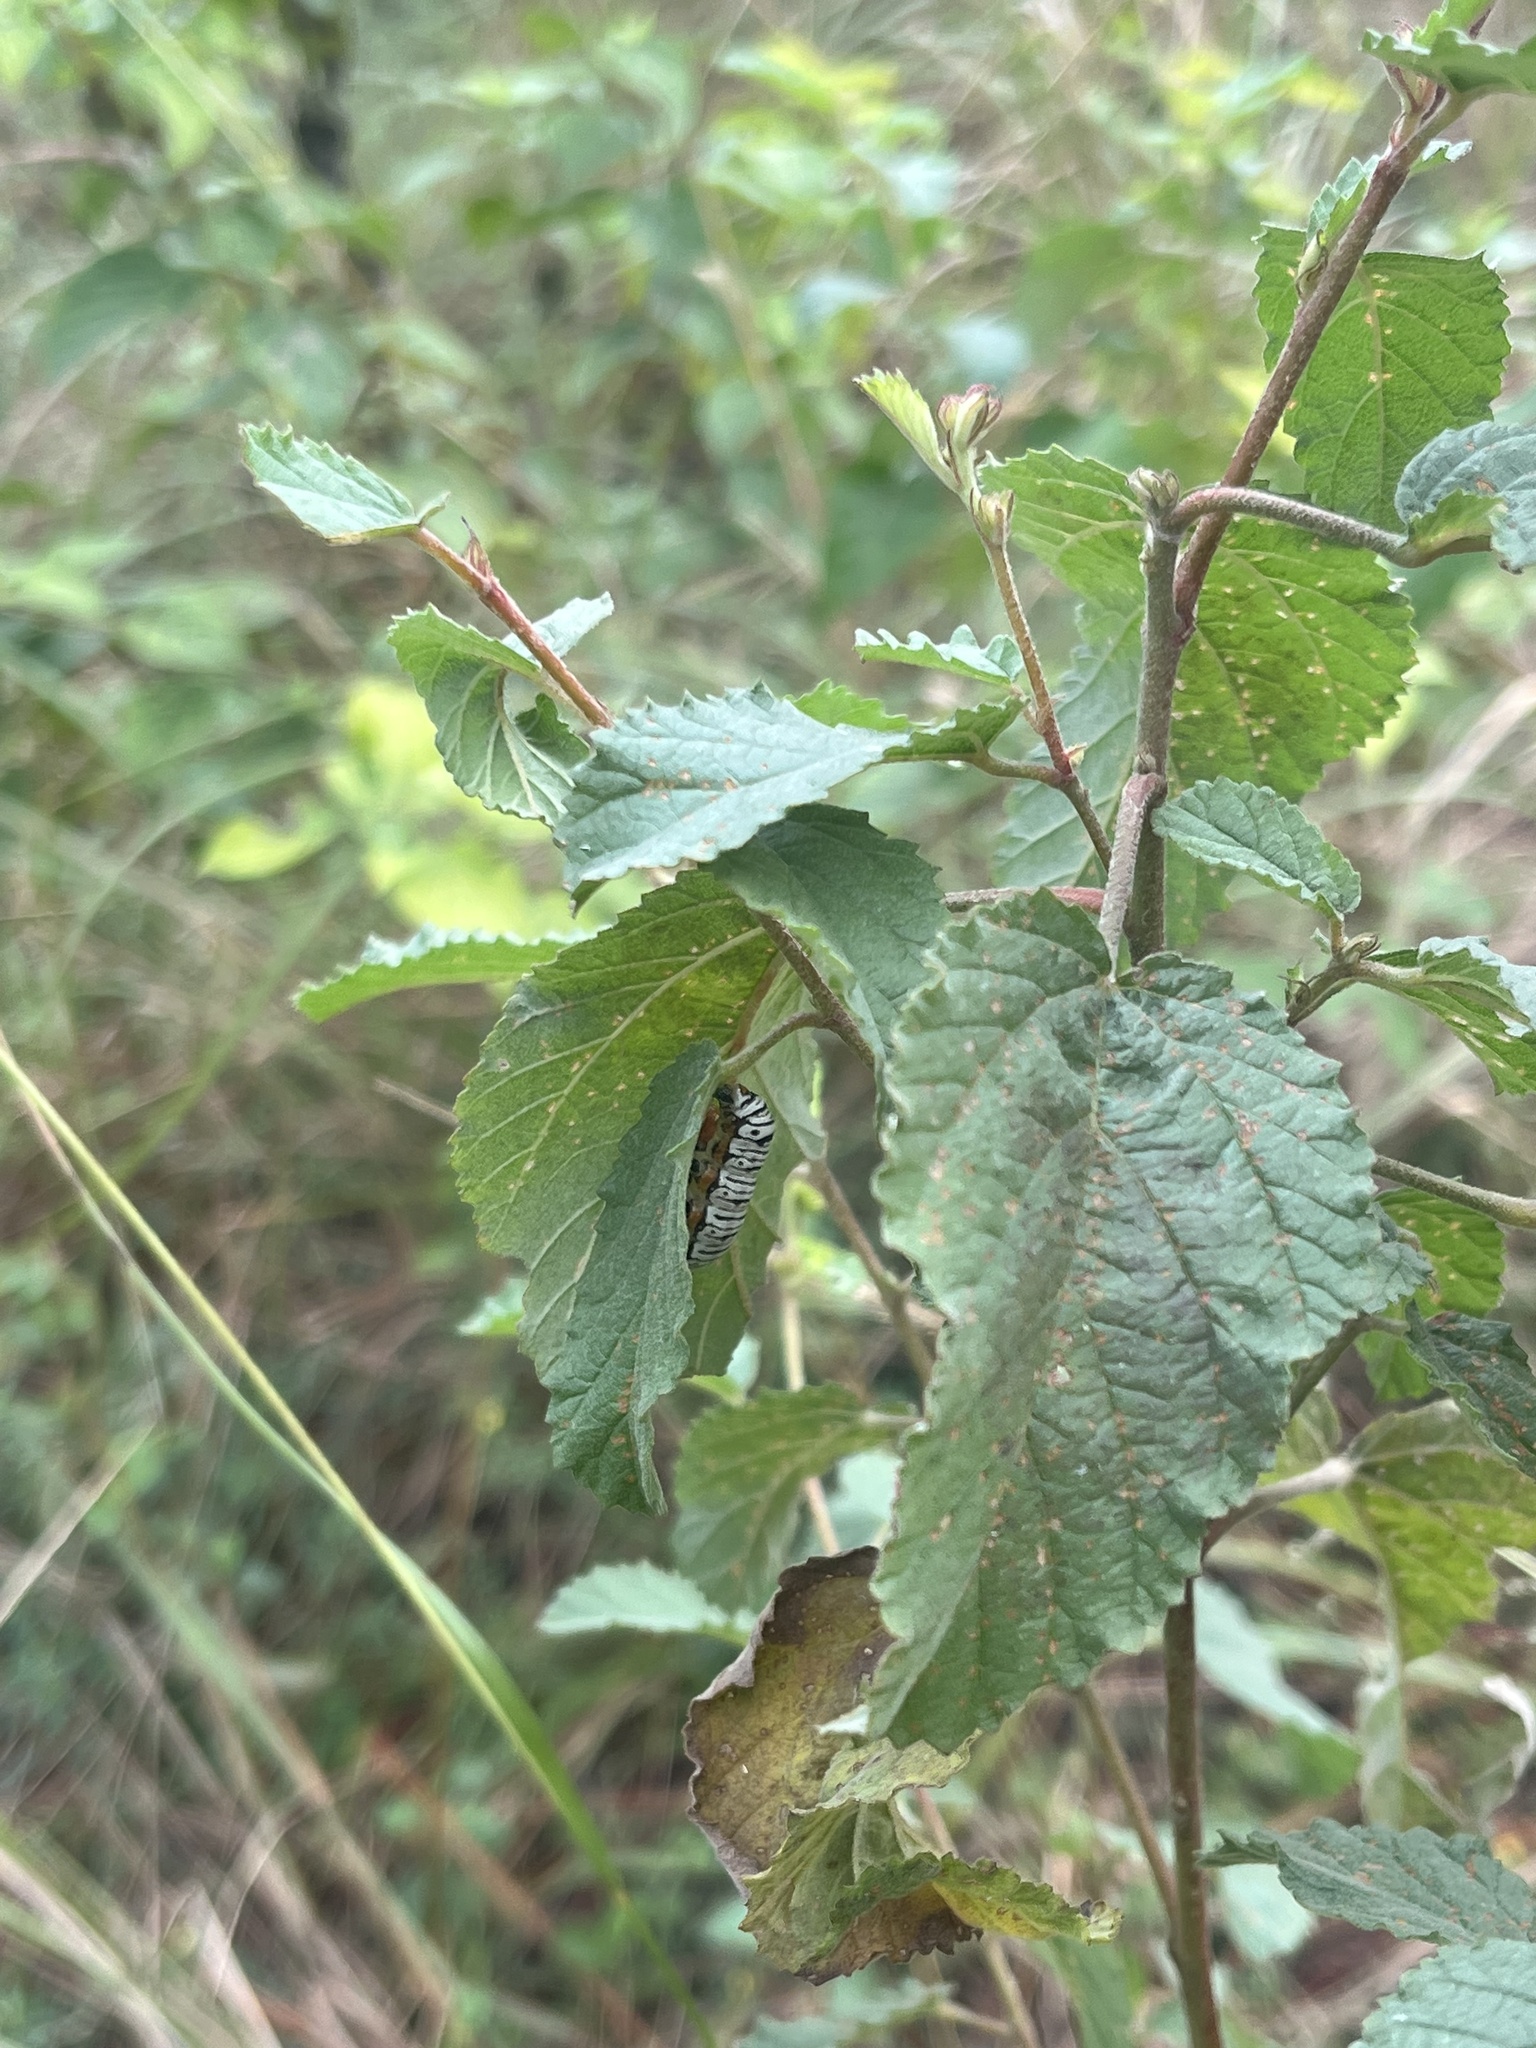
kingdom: Animalia
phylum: Arthropoda
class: Insecta
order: Lepidoptera
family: Erebidae
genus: Diphthera
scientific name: Diphthera festiva
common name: Hieroglyphic moth
